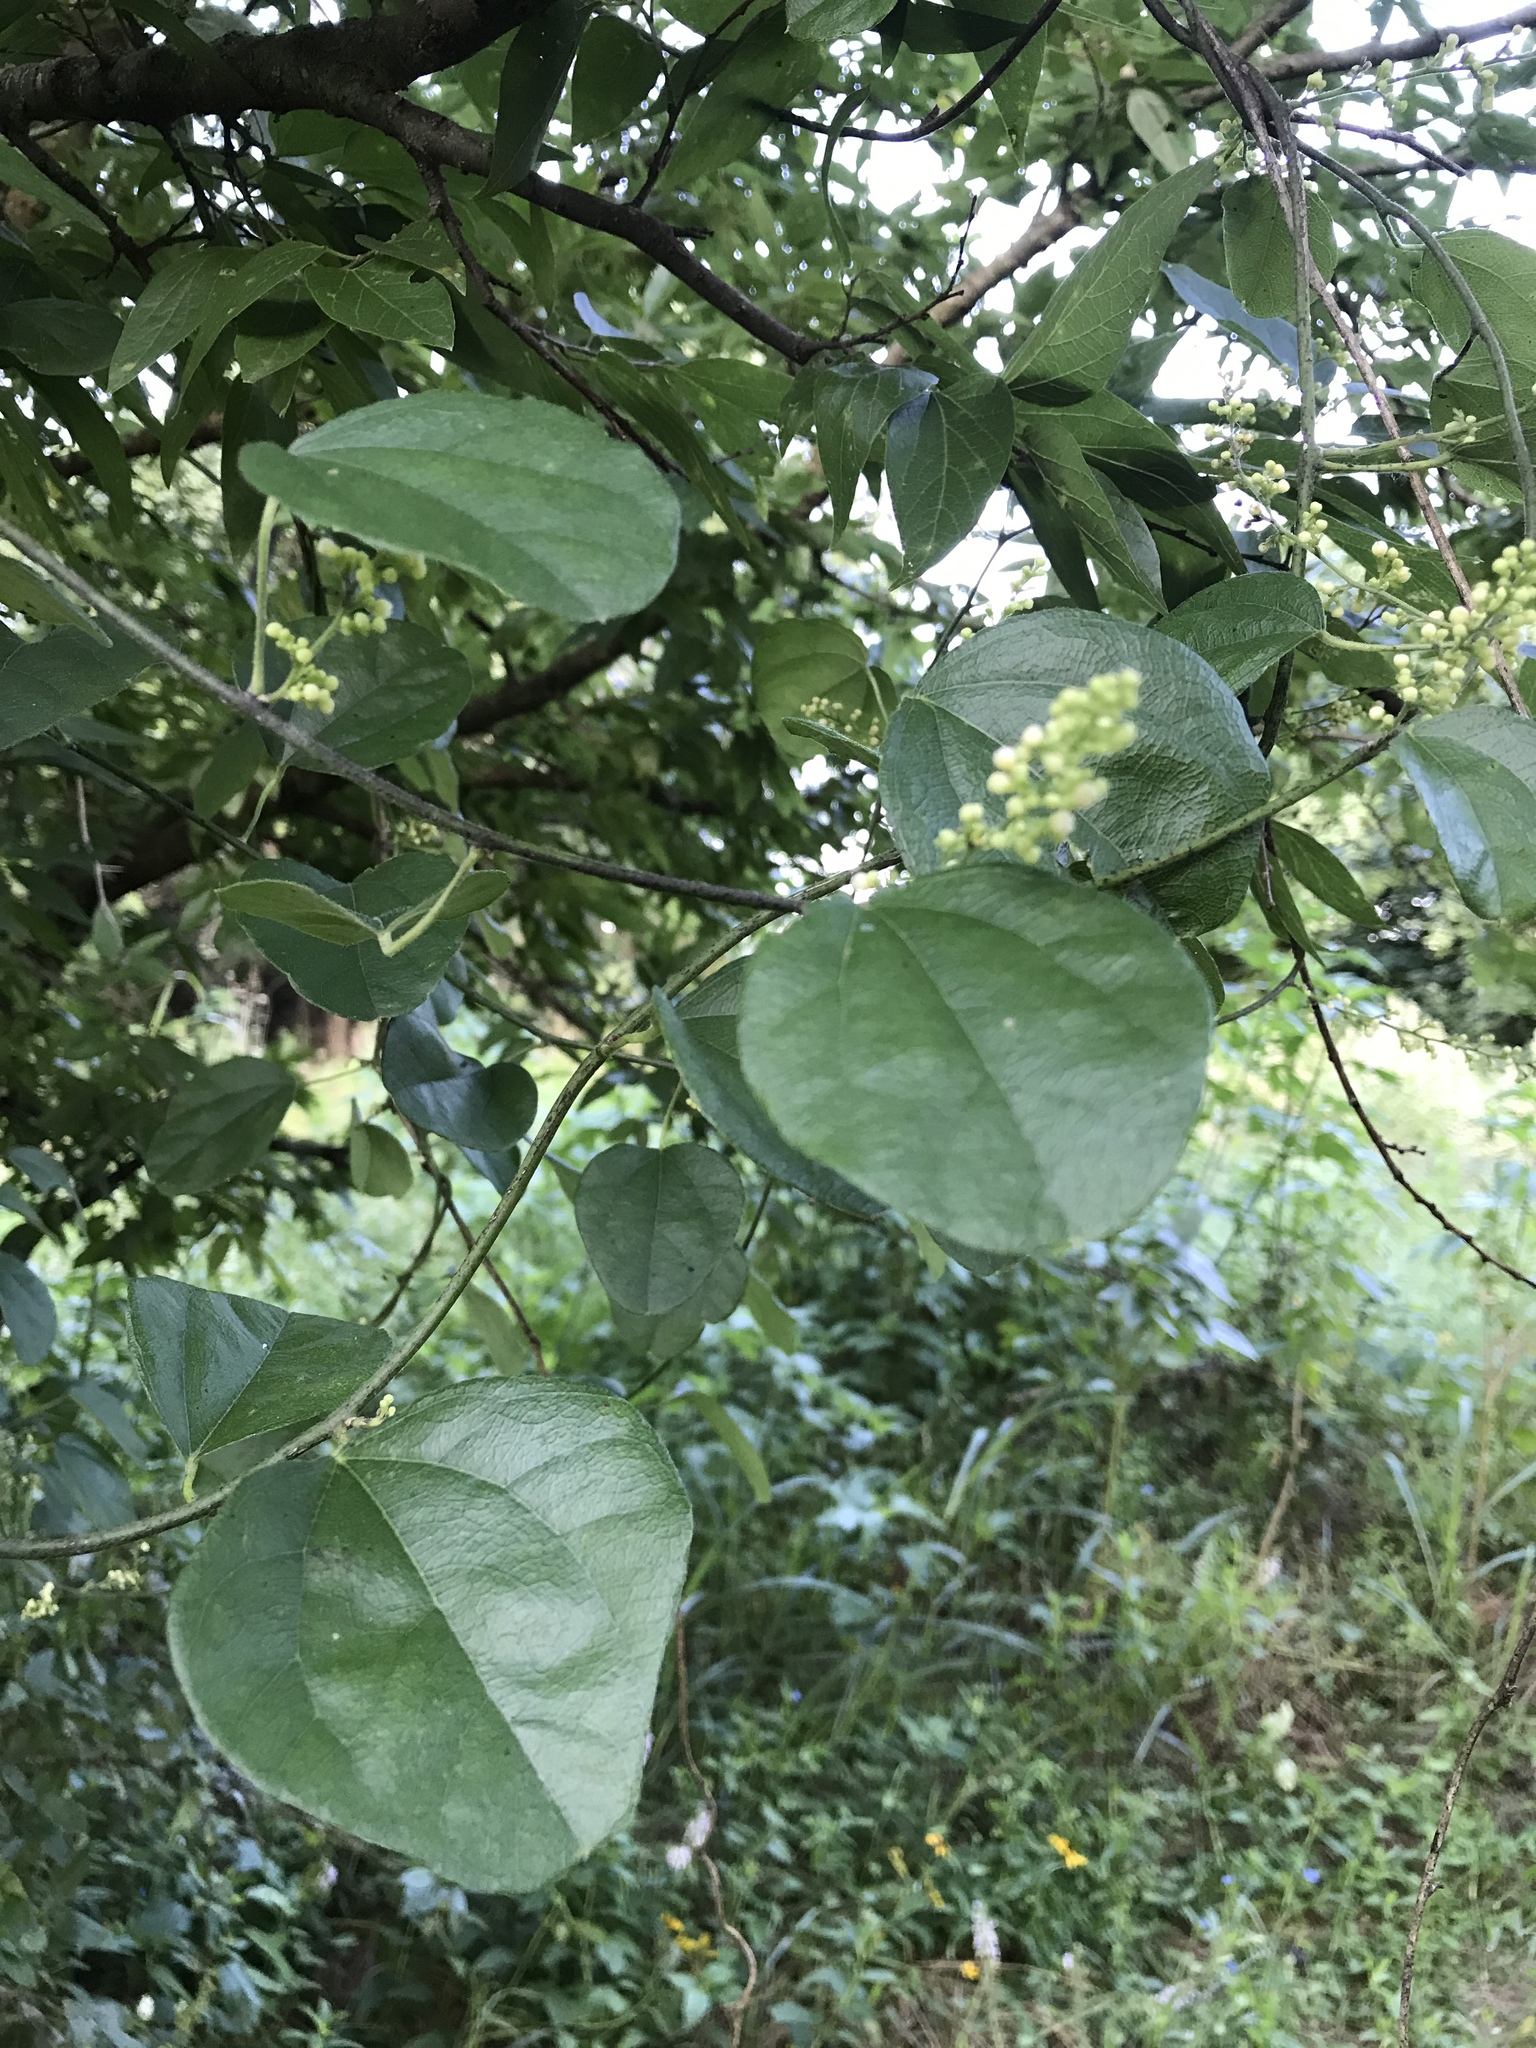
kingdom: Plantae
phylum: Tracheophyta
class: Magnoliopsida
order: Ranunculales
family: Menispermaceae
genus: Cocculus
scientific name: Cocculus carolinus
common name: Carolina moonseed
